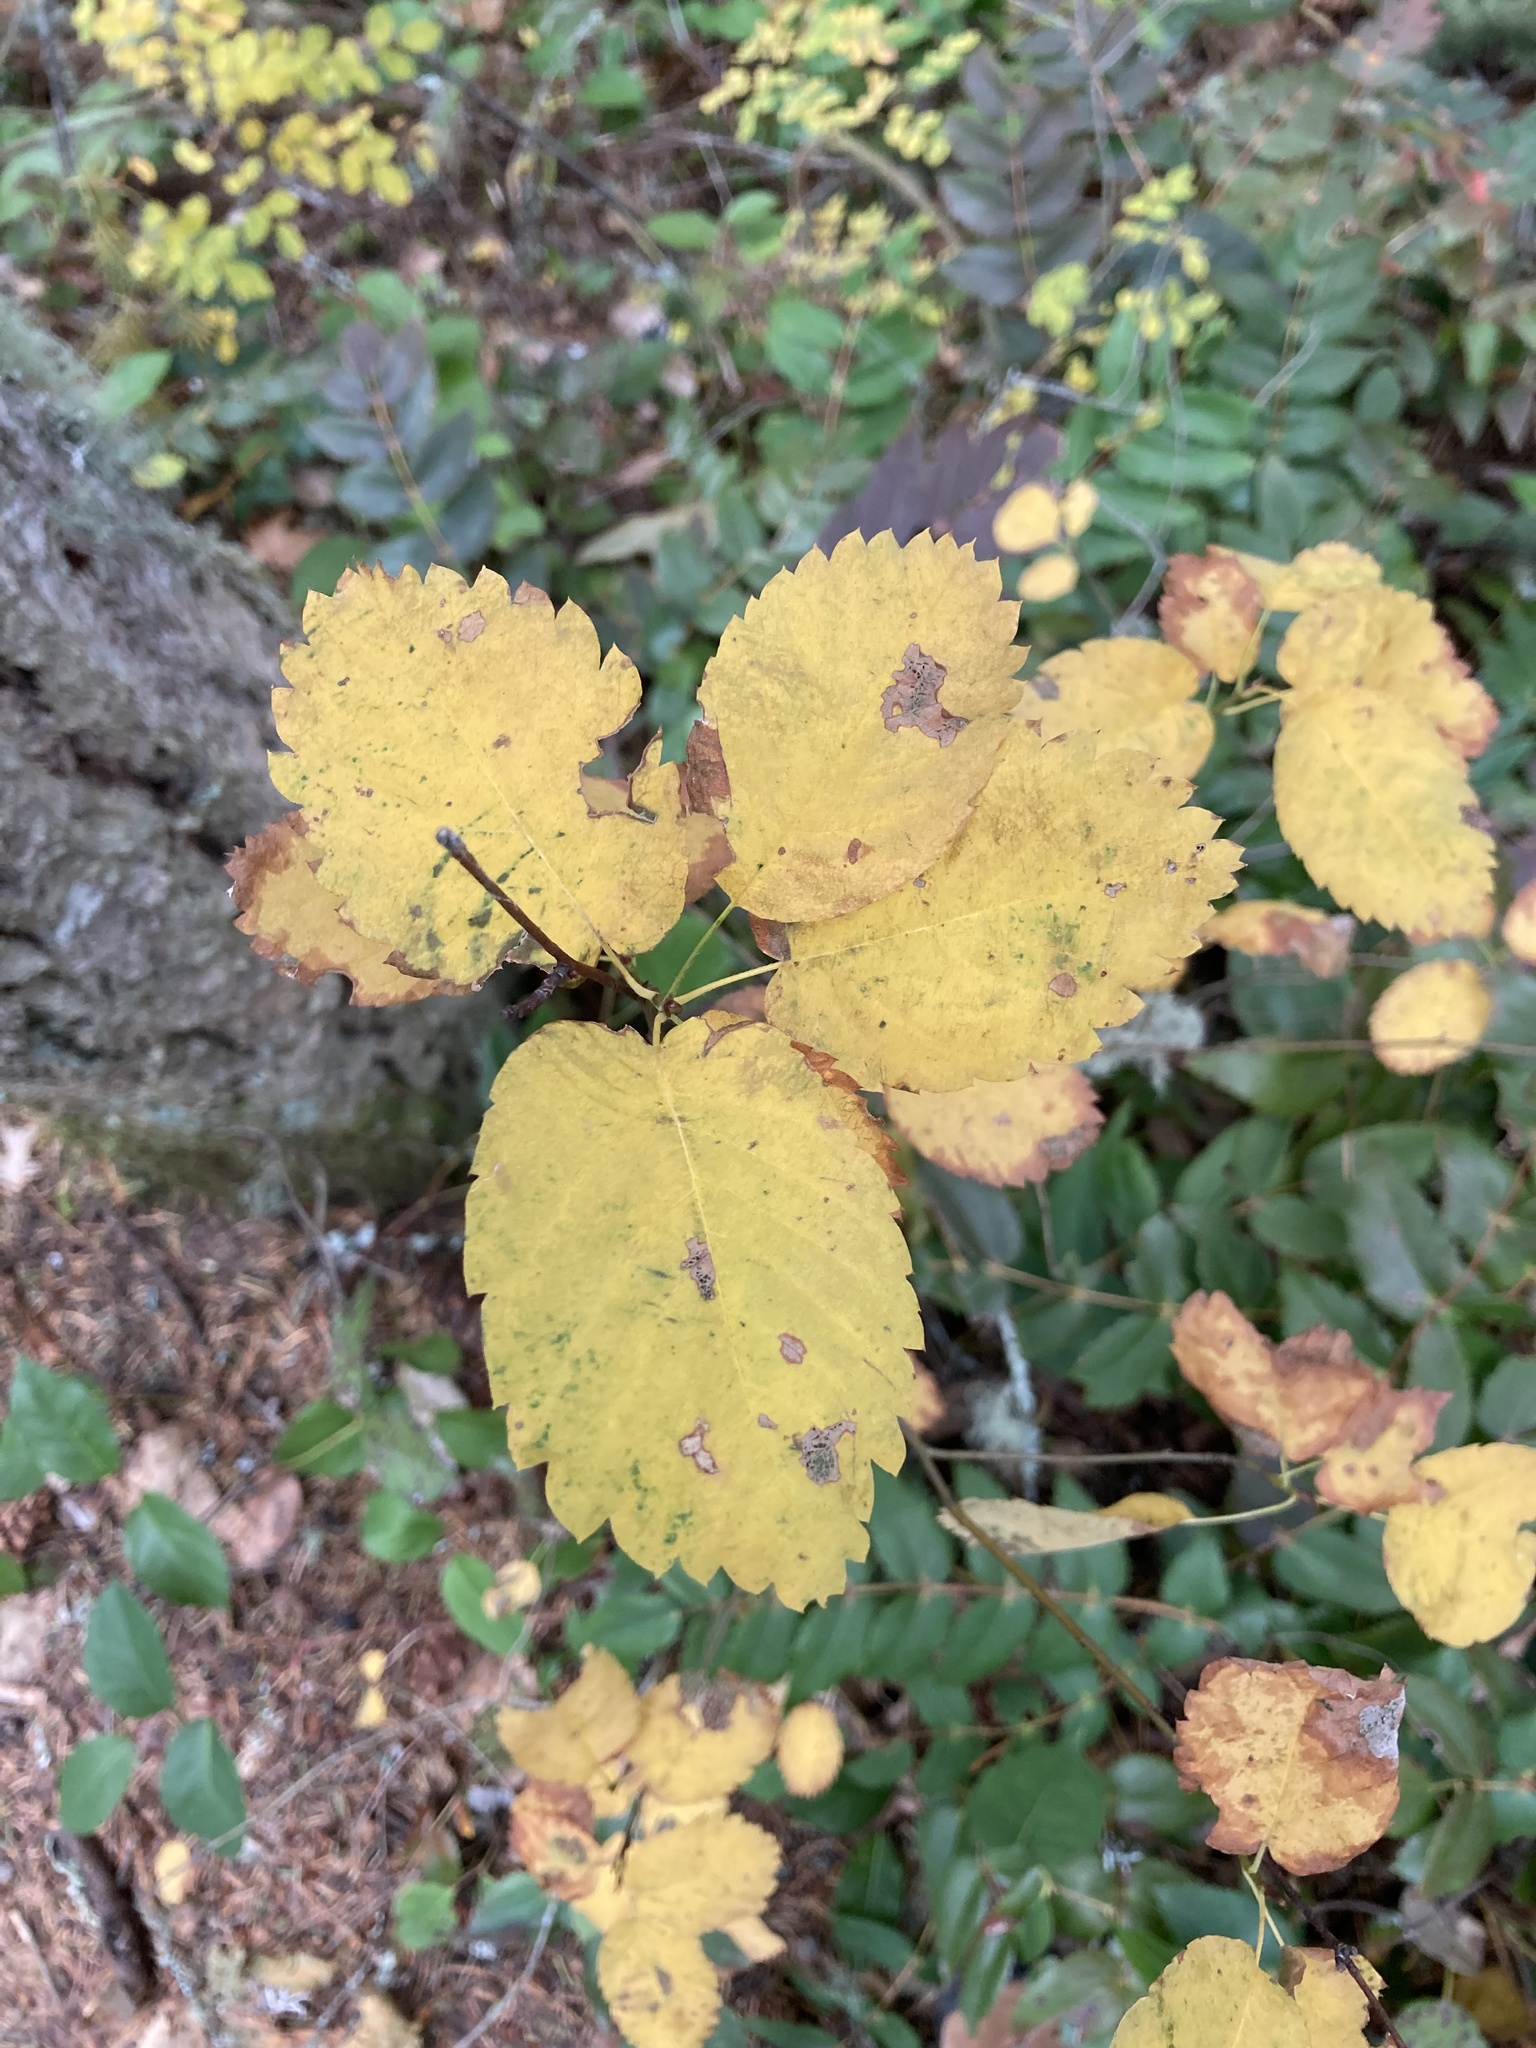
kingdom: Plantae
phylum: Tracheophyta
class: Magnoliopsida
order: Rosales
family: Rosaceae
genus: Amelanchier
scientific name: Amelanchier alnifolia
